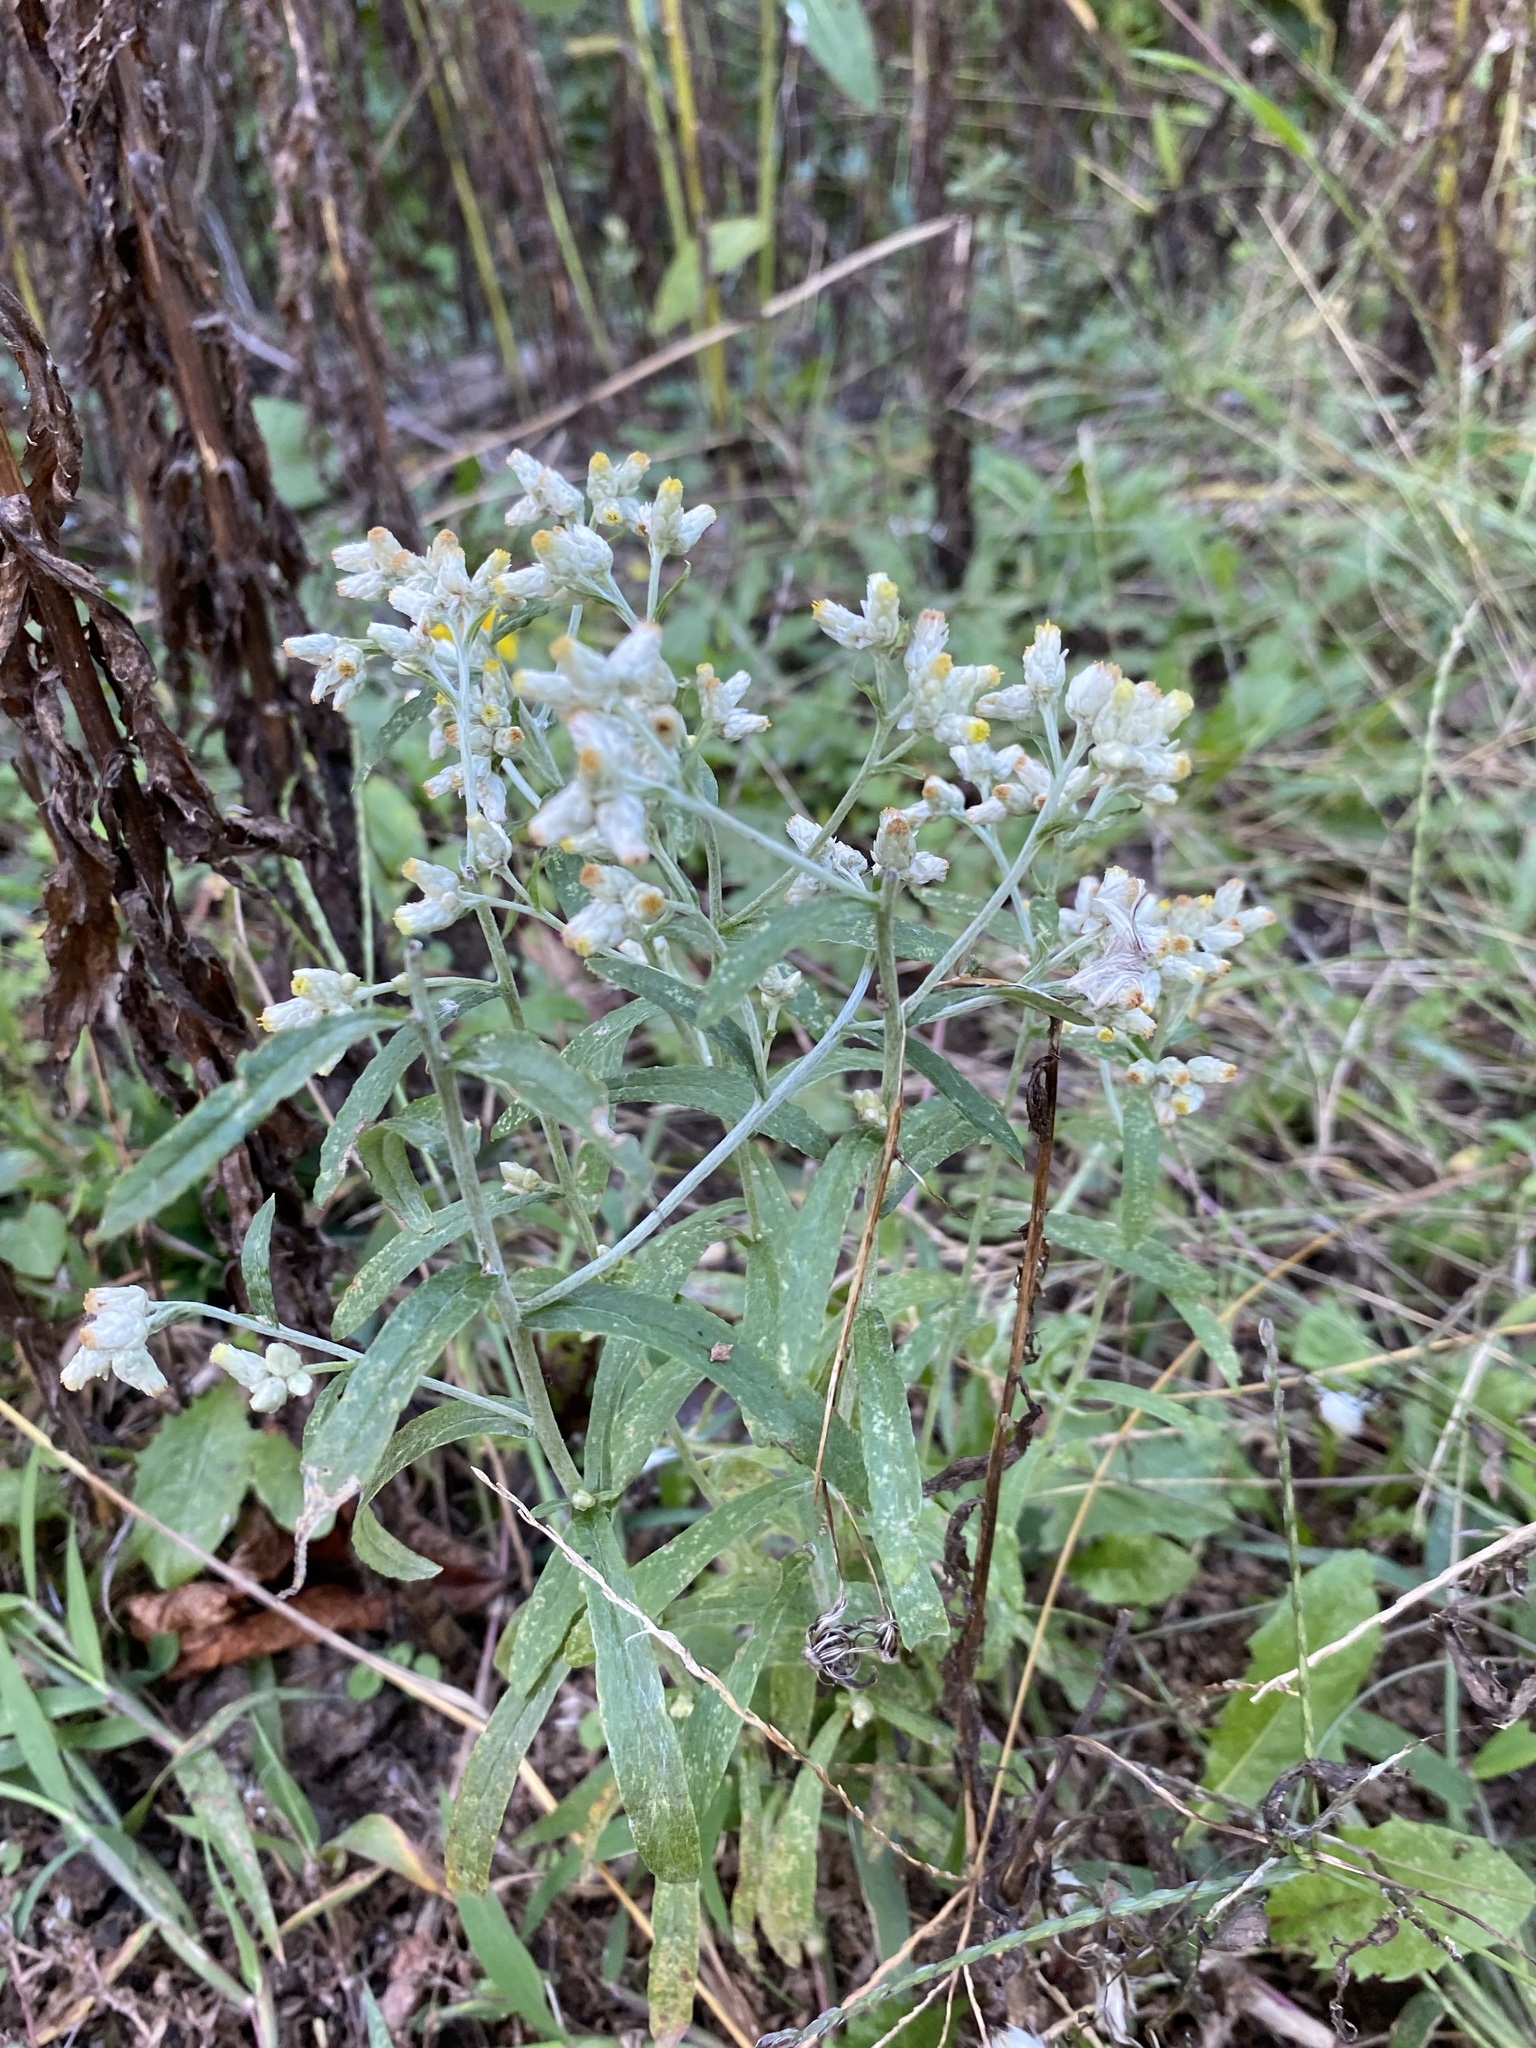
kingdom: Plantae
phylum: Tracheophyta
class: Magnoliopsida
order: Asterales
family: Asteraceae
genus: Pseudognaphalium
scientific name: Pseudognaphalium obtusifolium
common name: Eastern rabbit-tobacco
